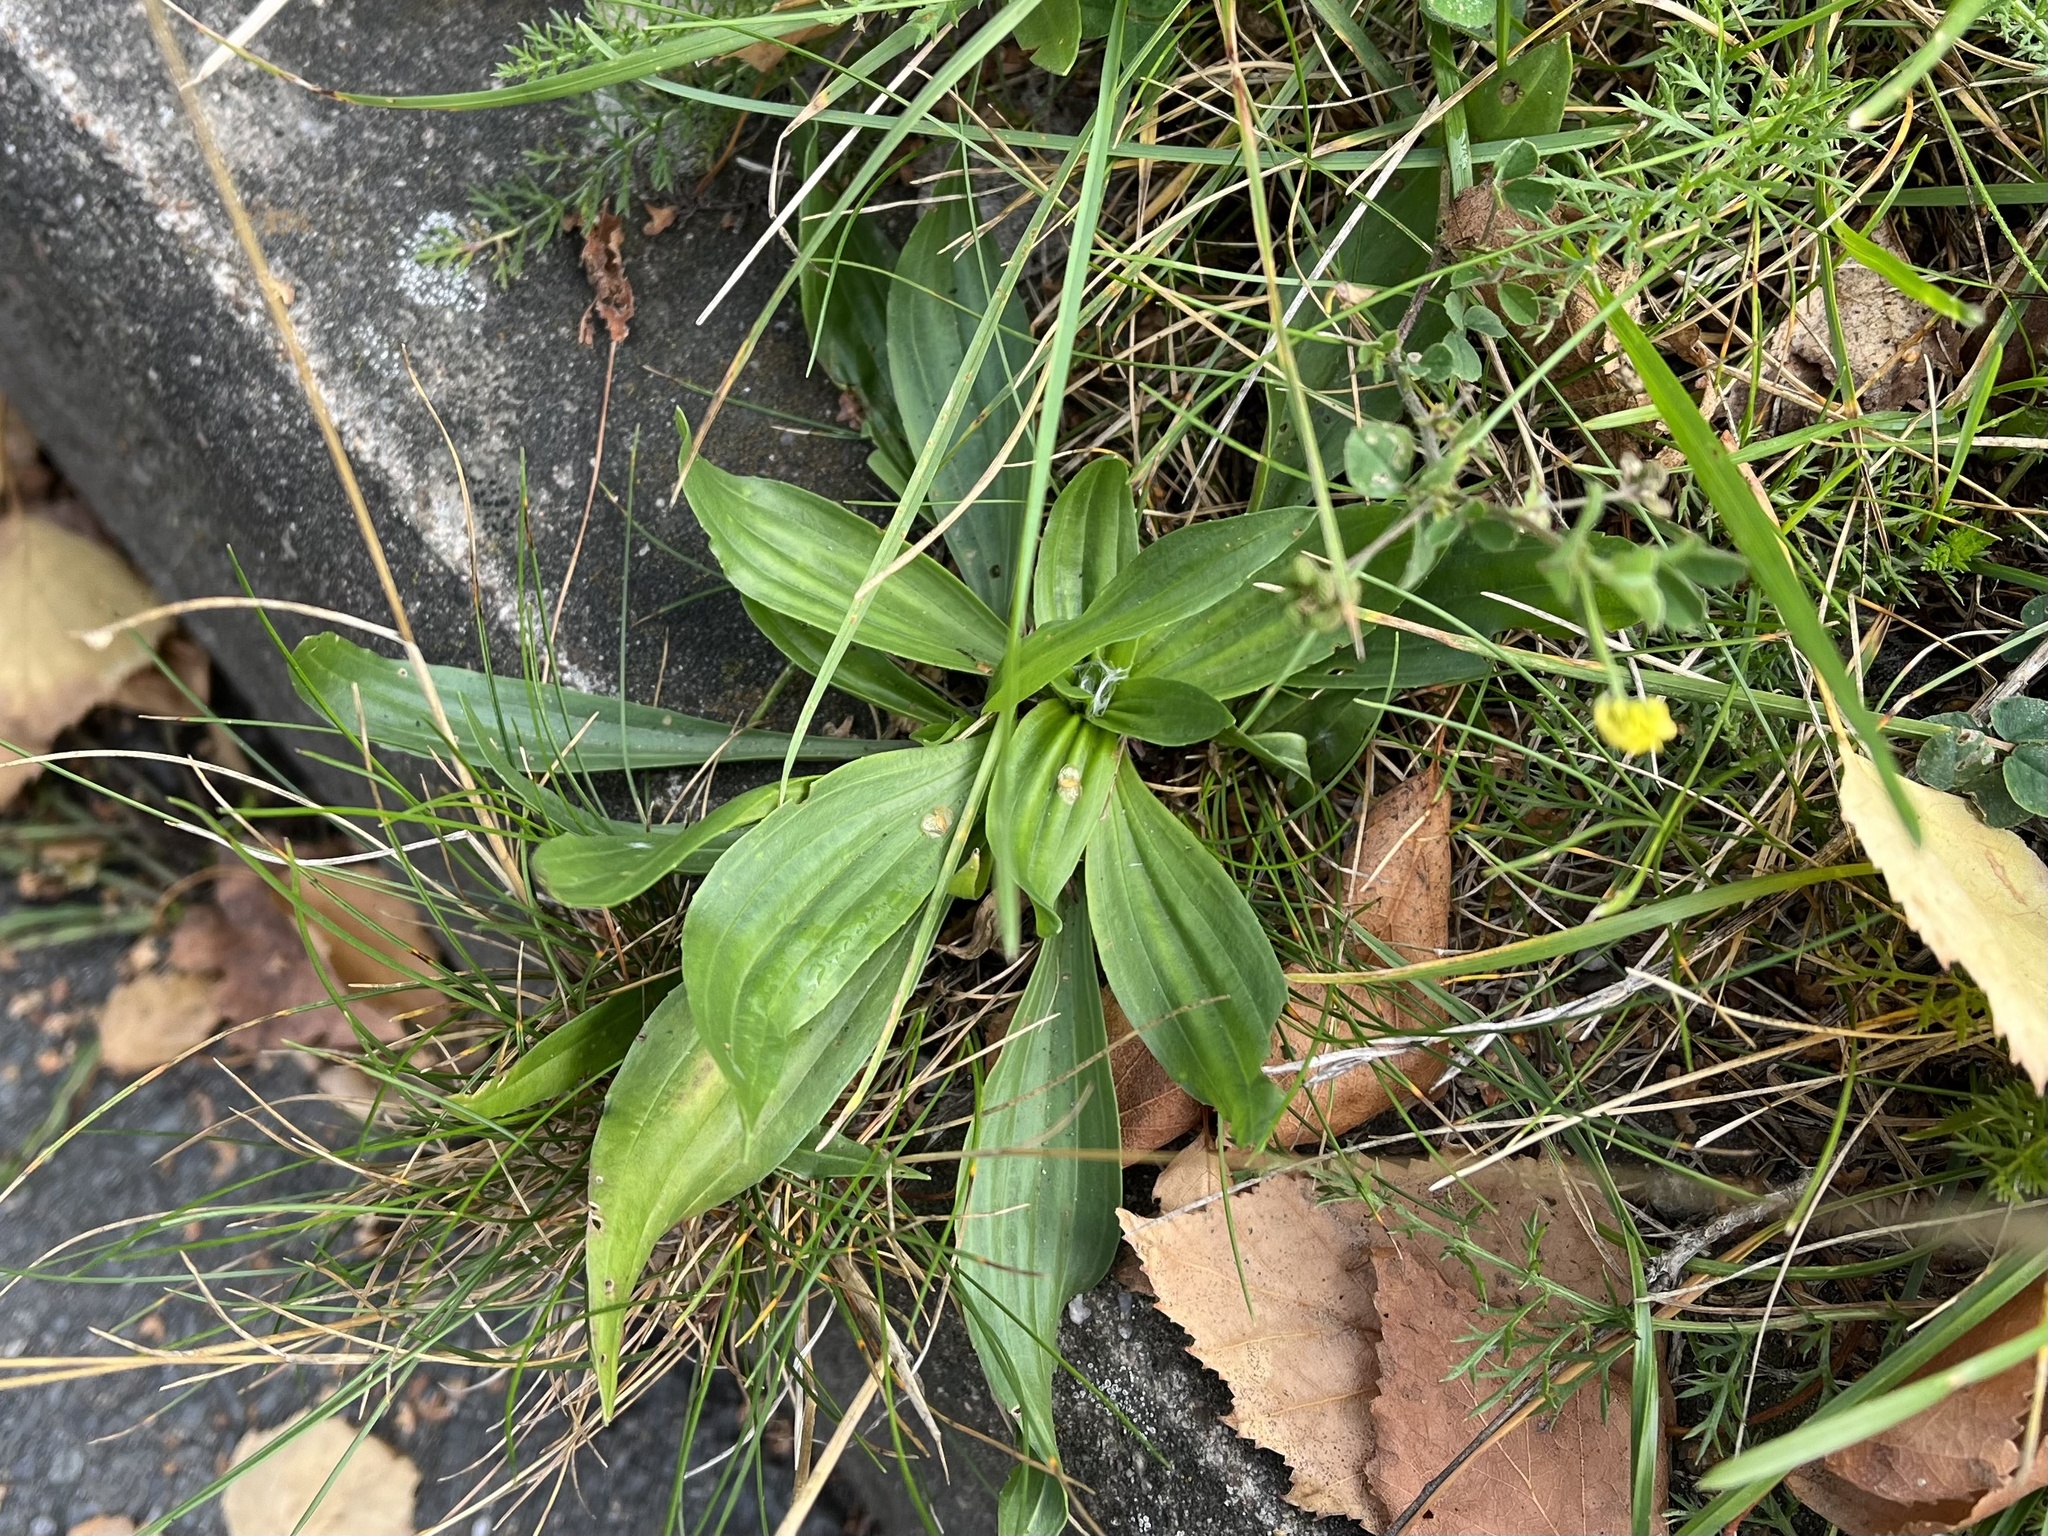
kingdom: Plantae
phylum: Tracheophyta
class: Magnoliopsida
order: Lamiales
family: Plantaginaceae
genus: Plantago
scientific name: Plantago lanceolata
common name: Ribwort plantain
